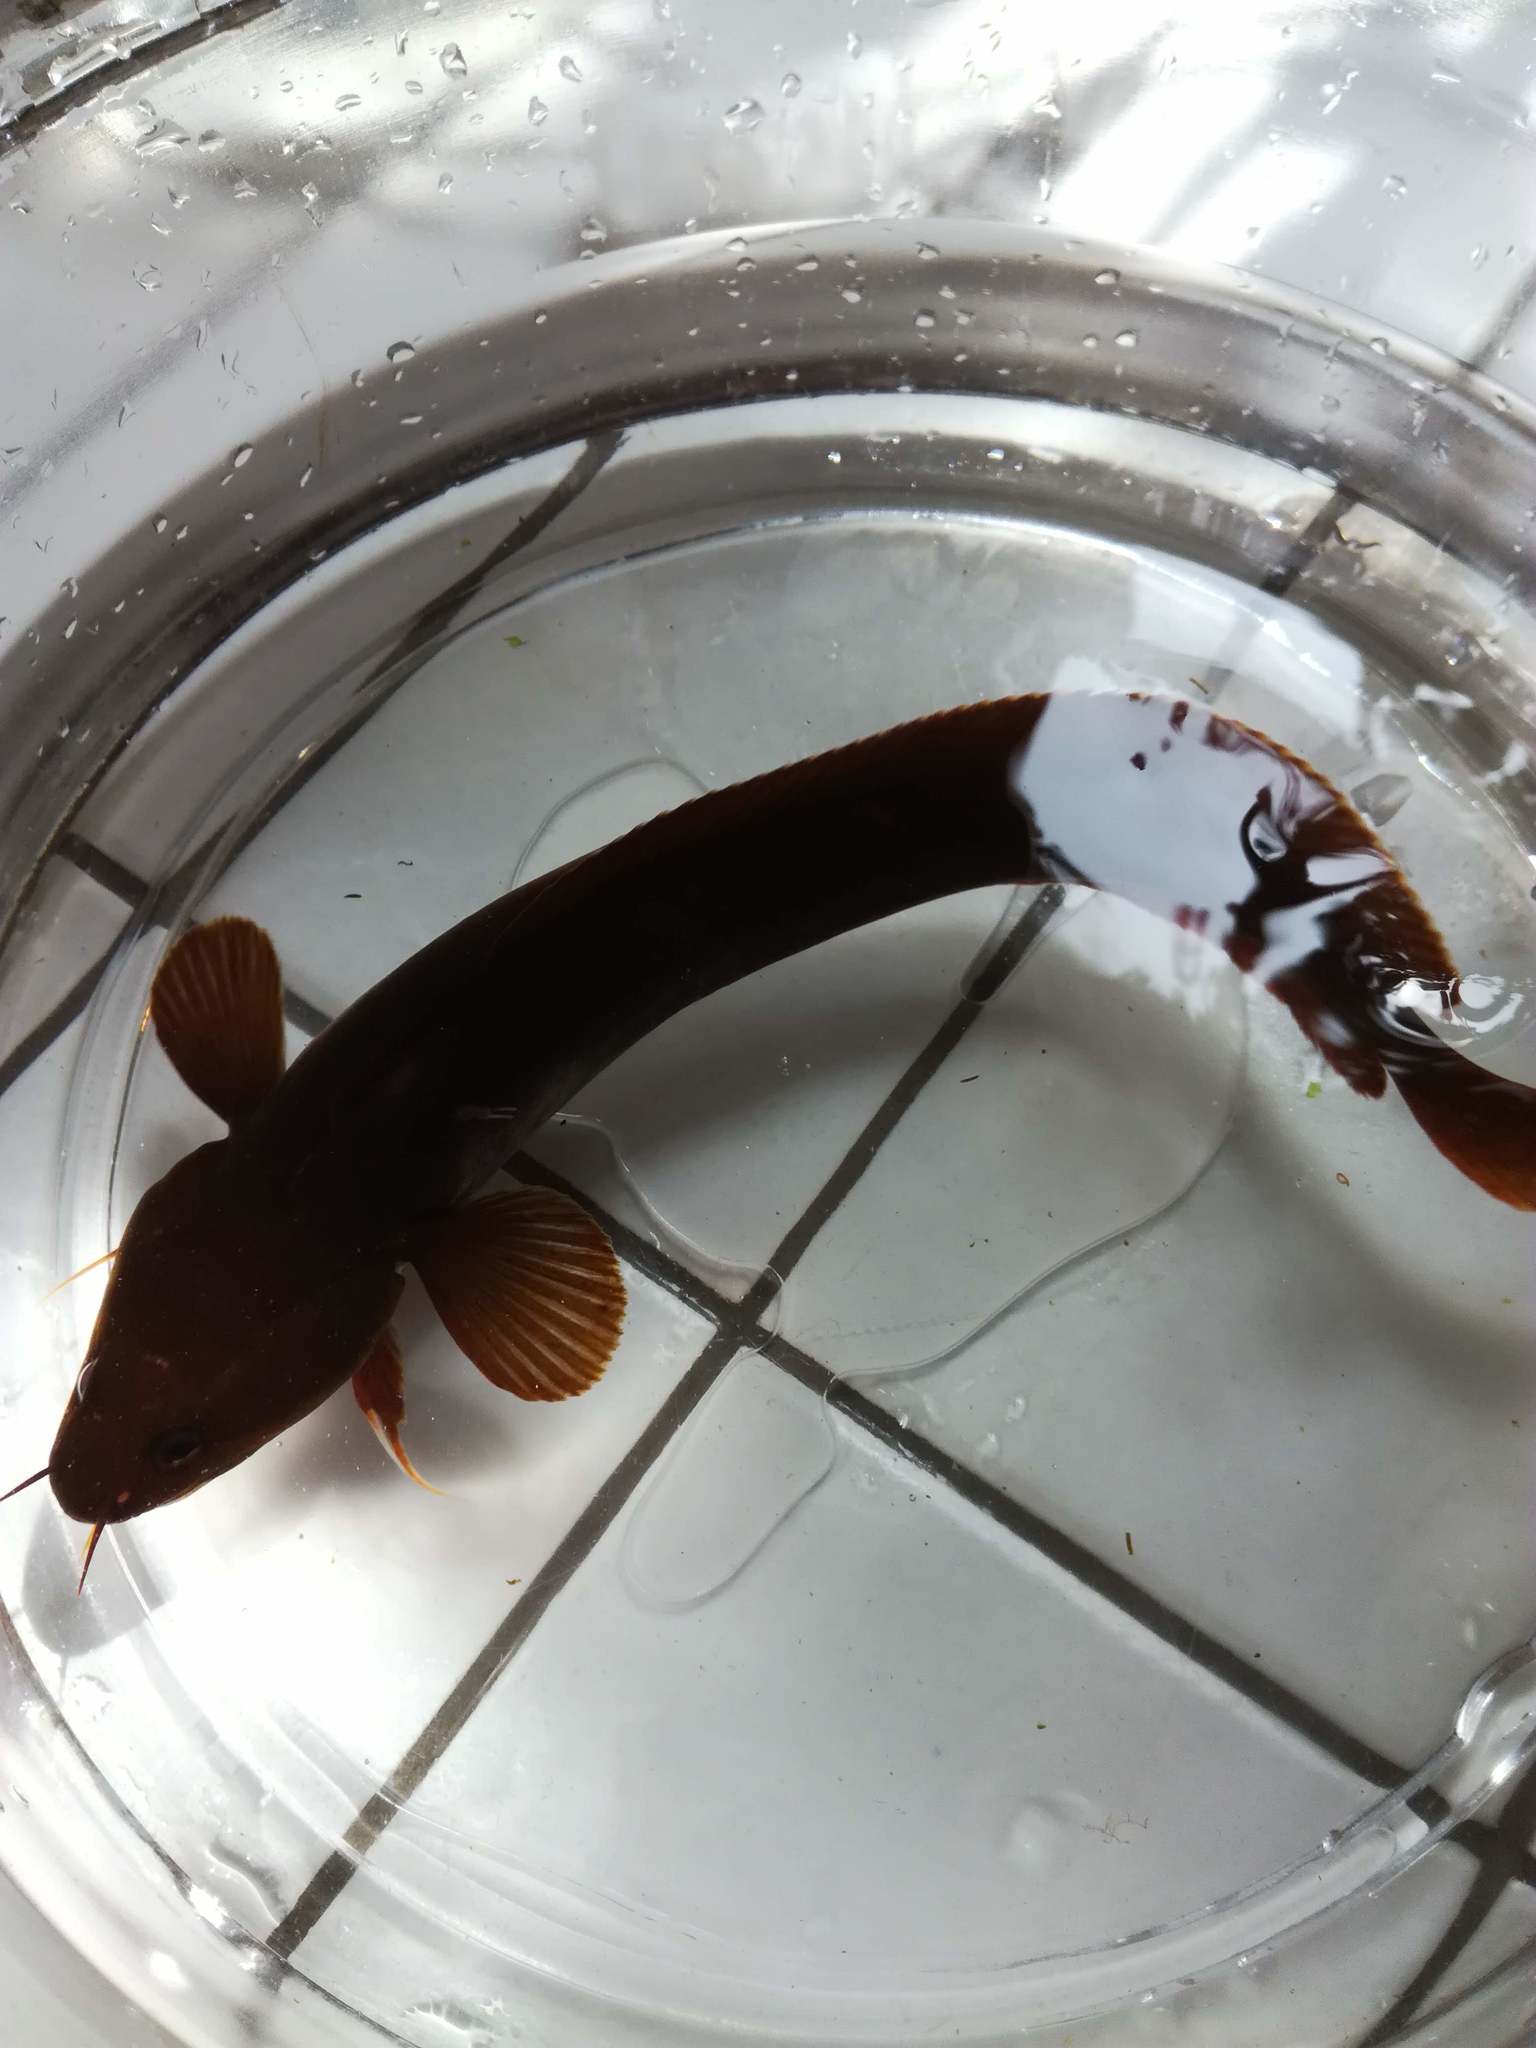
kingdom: Animalia
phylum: Chordata
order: Gadiformes
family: Lotidae
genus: Gaidropsarus
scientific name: Gaidropsarus mediterraneus
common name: Shore rockling
